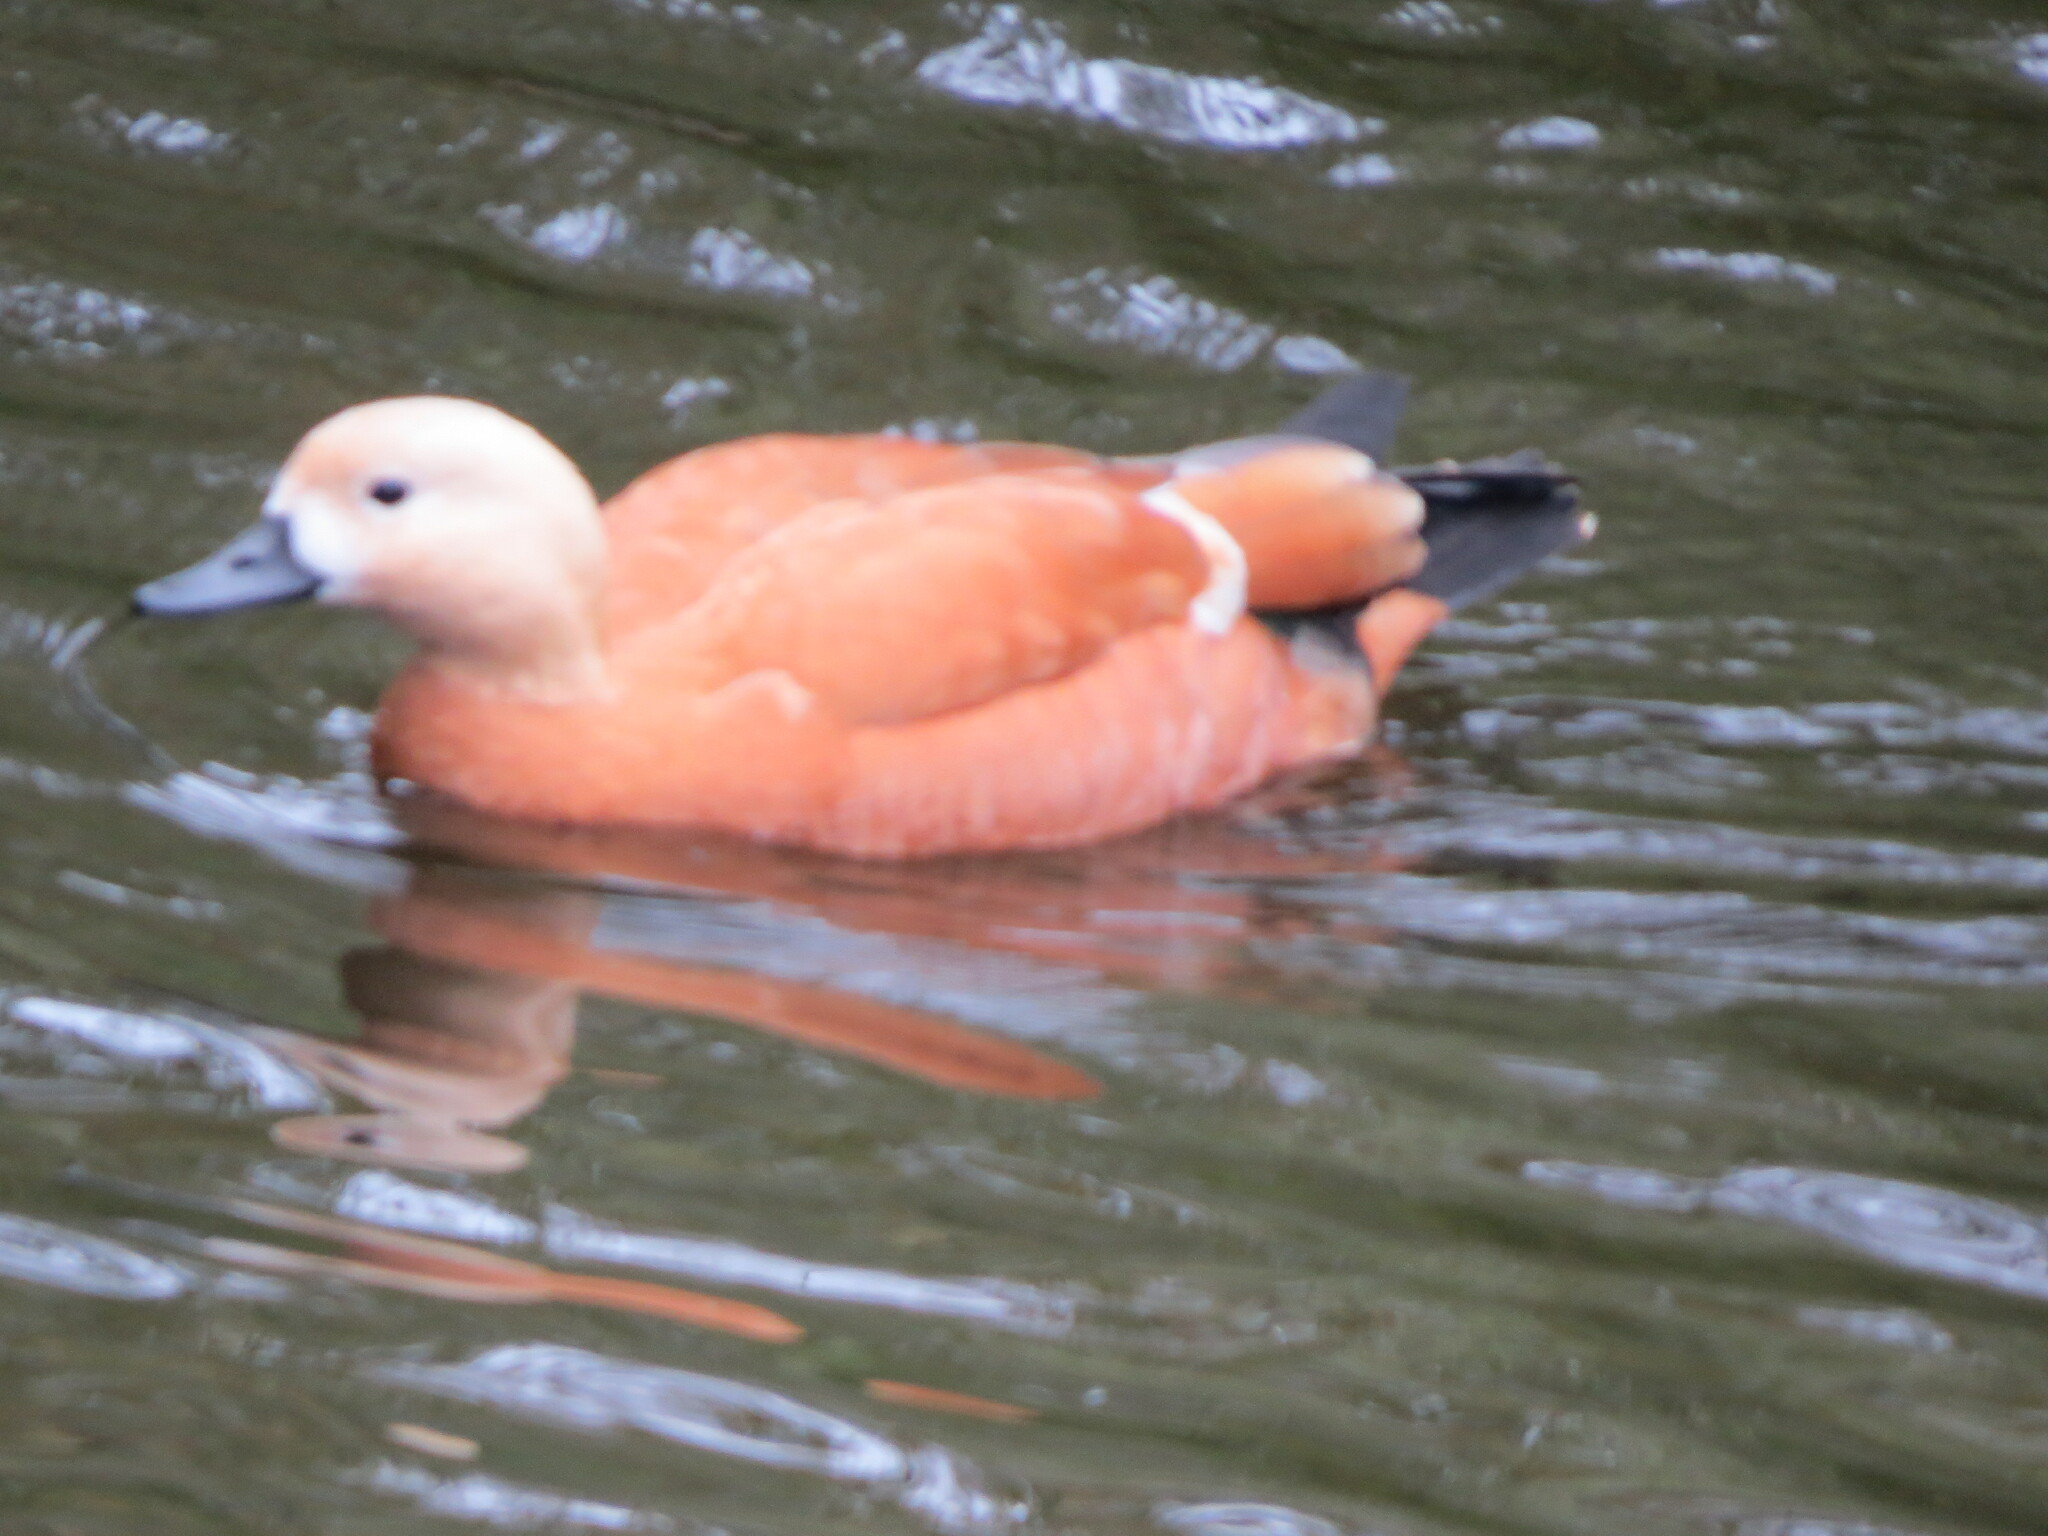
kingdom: Animalia
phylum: Chordata
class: Aves
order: Anseriformes
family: Anatidae
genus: Tadorna
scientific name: Tadorna ferruginea
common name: Ruddy shelduck
